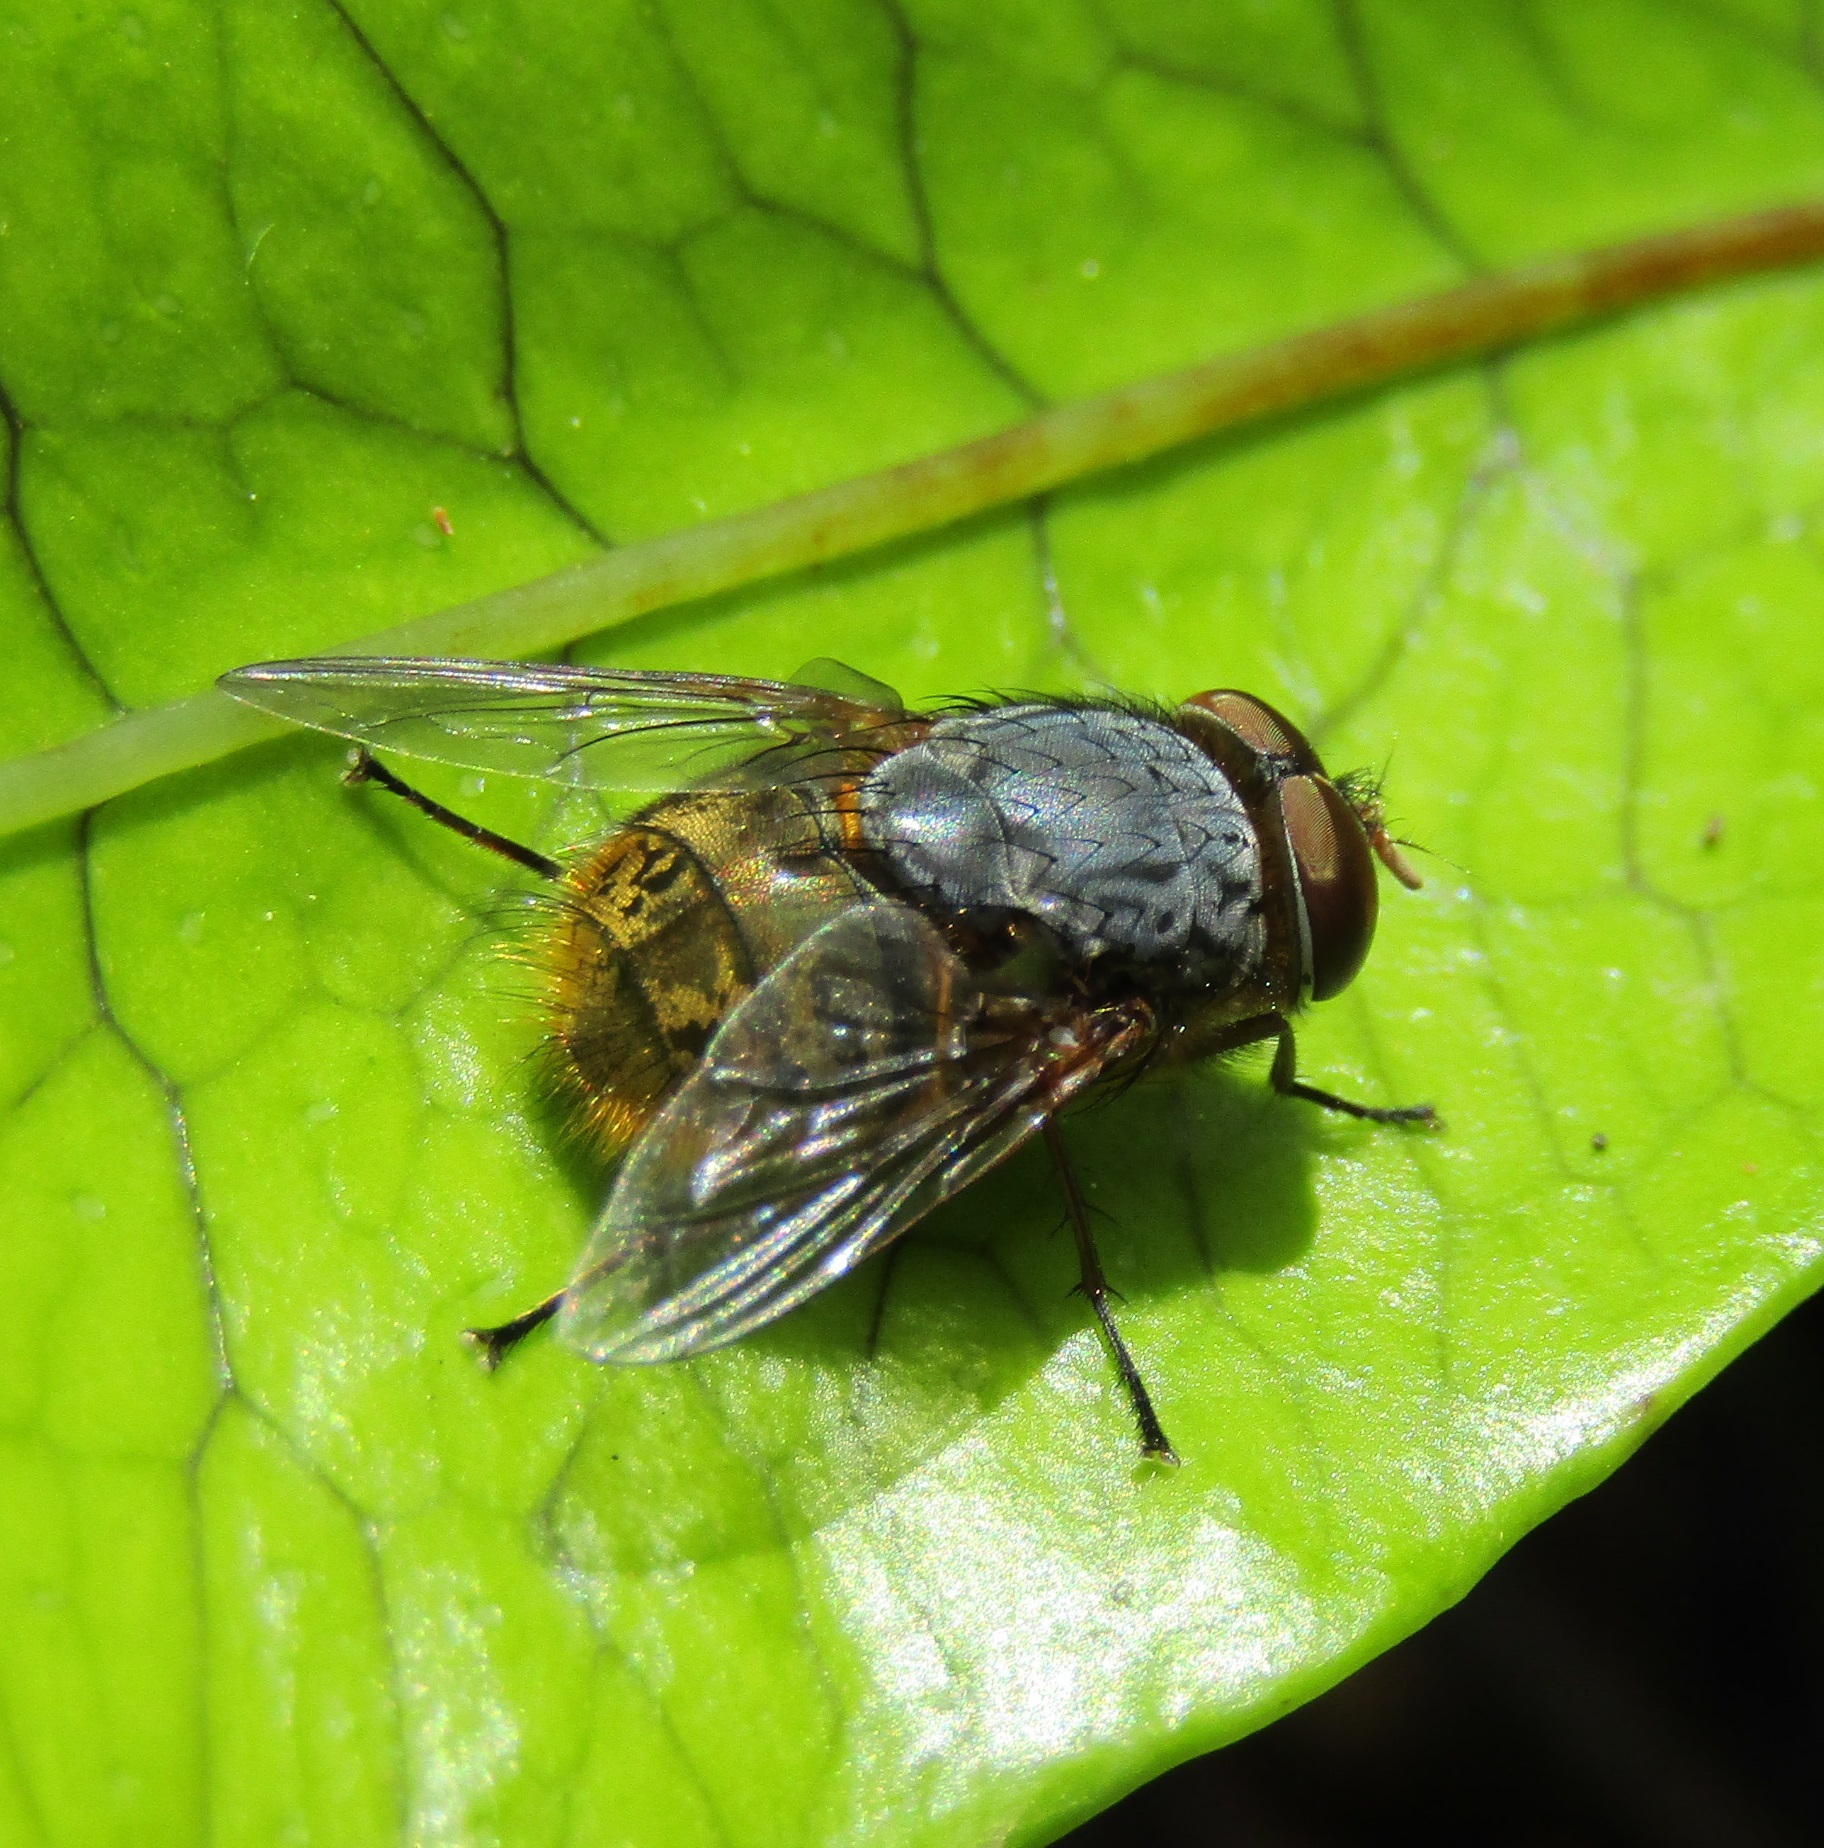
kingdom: Animalia
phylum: Arthropoda
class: Insecta
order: Diptera
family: Calliphoridae
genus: Calliphora
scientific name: Calliphora stygia
